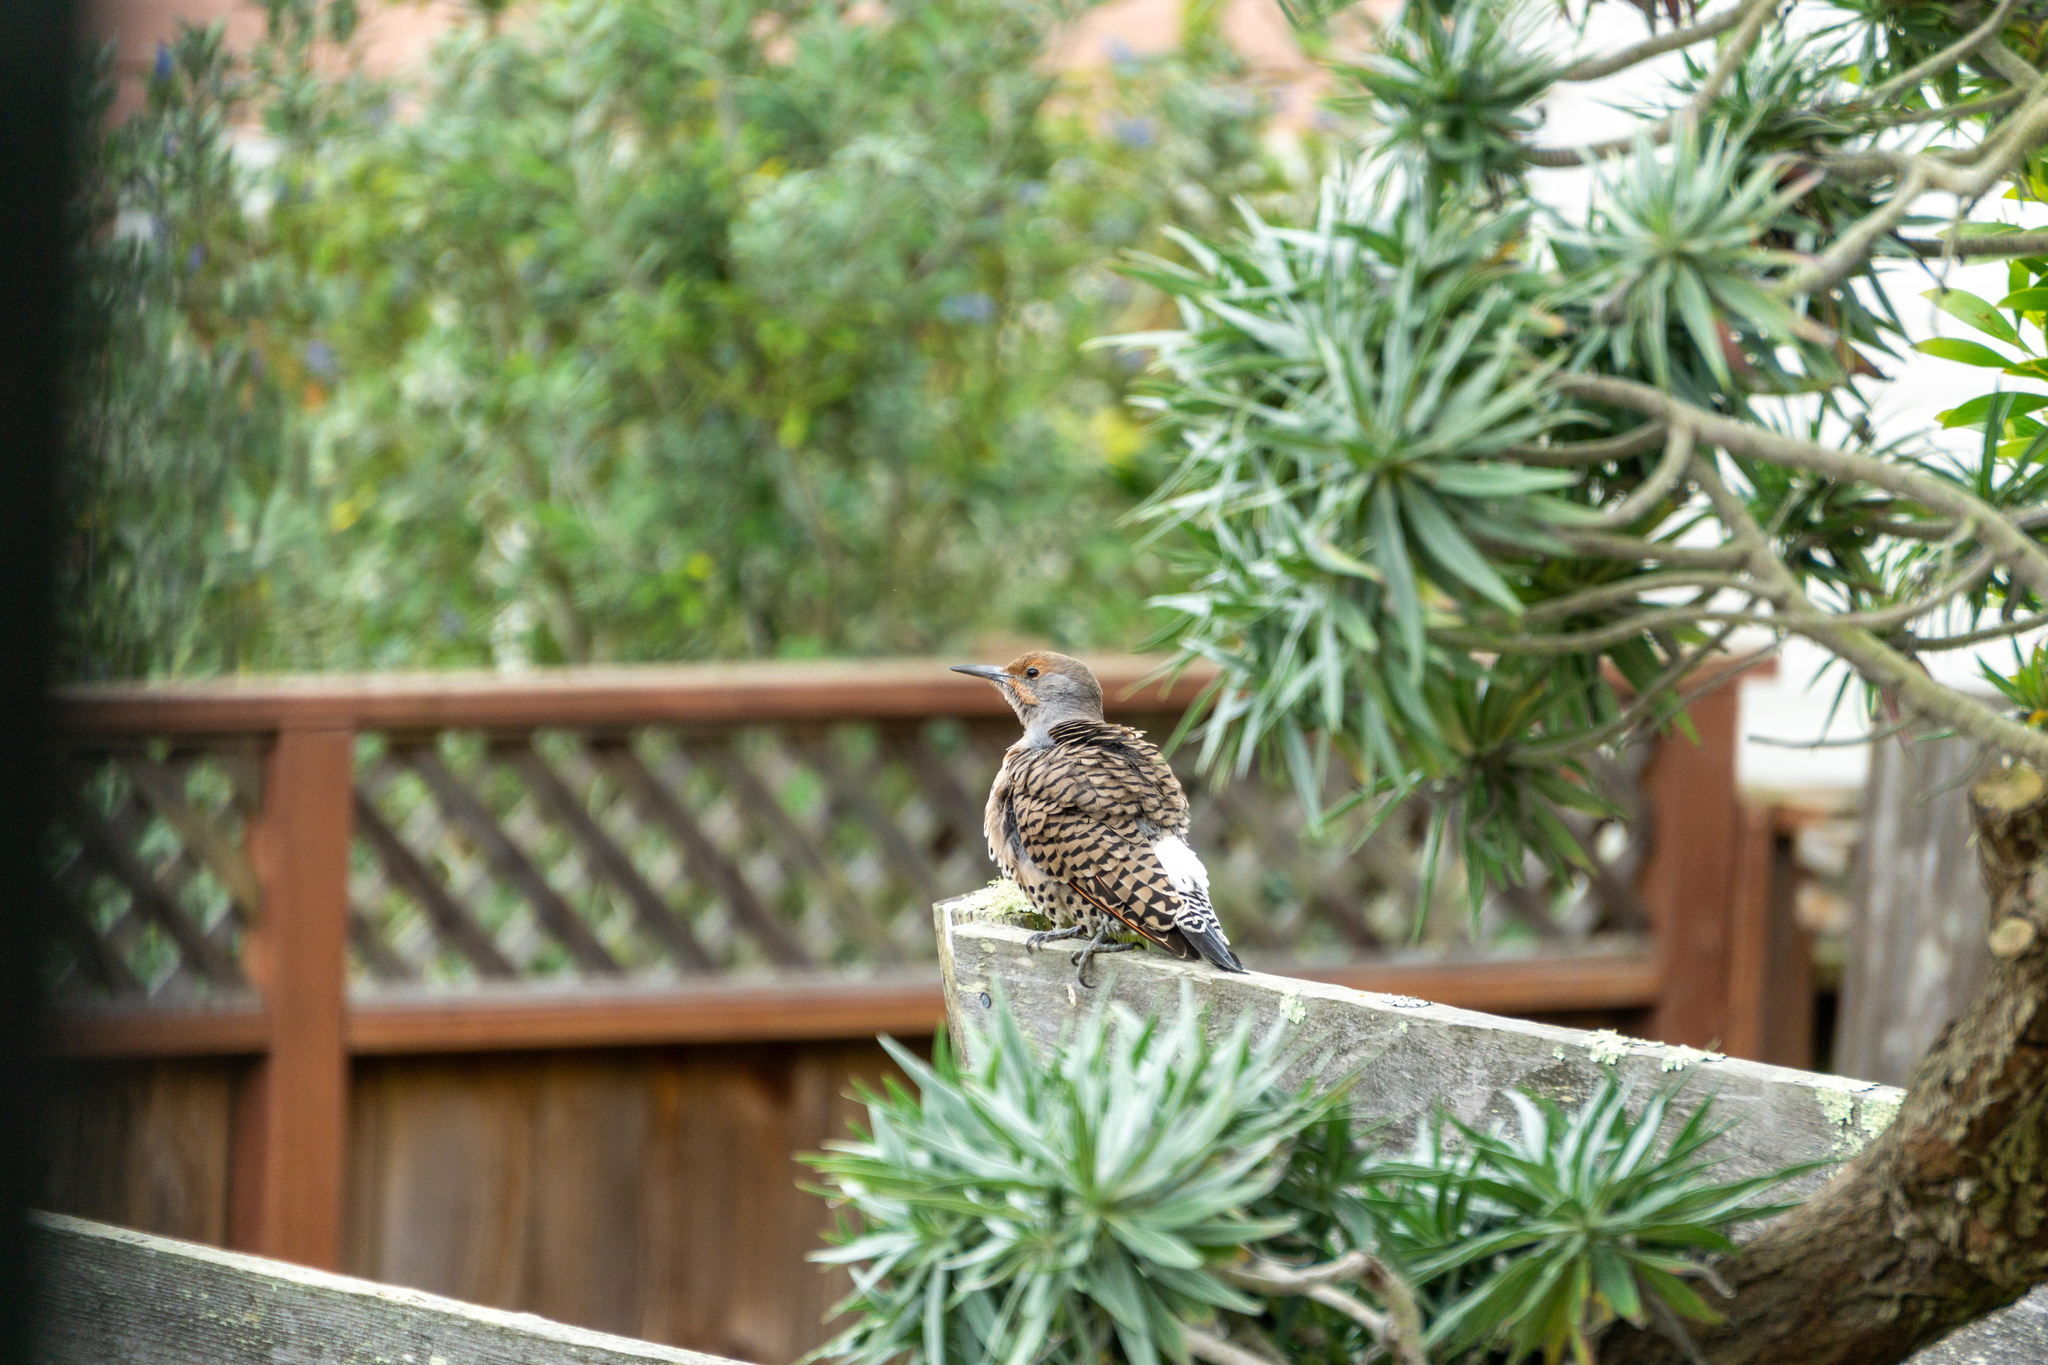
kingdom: Animalia
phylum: Chordata
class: Aves
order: Piciformes
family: Picidae
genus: Colaptes
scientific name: Colaptes auratus
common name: Northern flicker
